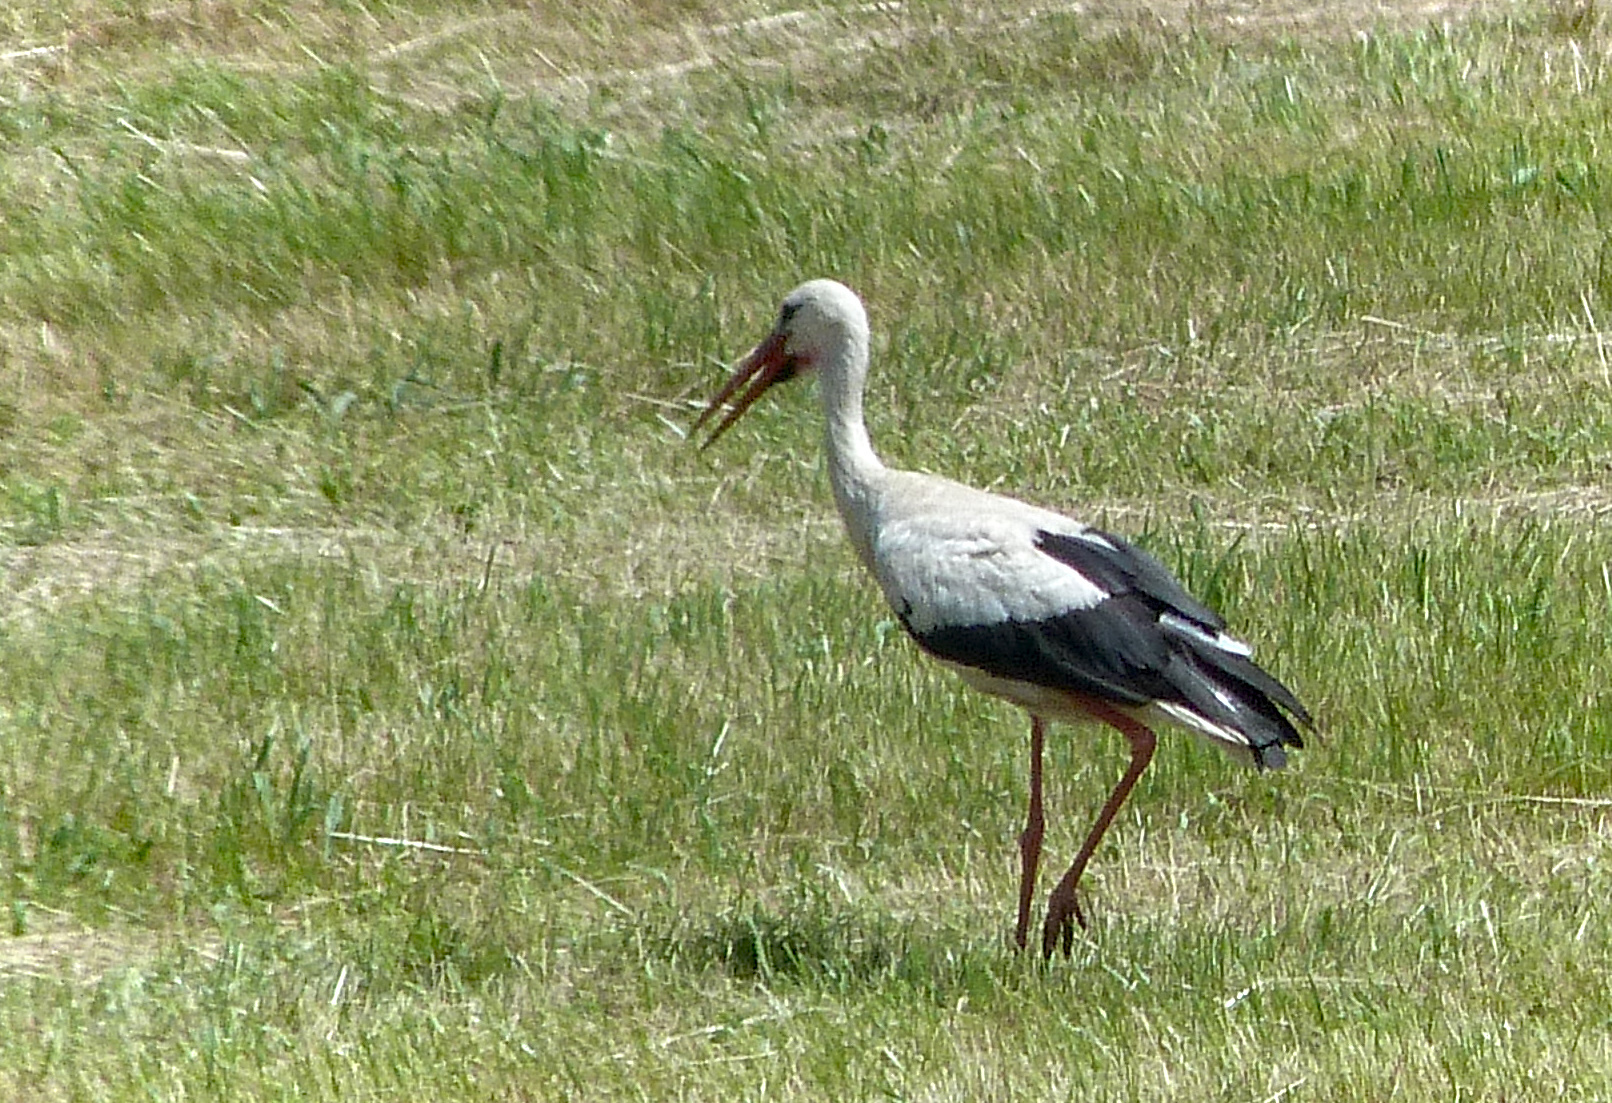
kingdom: Animalia
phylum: Chordata
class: Aves
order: Ciconiiformes
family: Ciconiidae
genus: Ciconia
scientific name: Ciconia ciconia
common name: White stork
